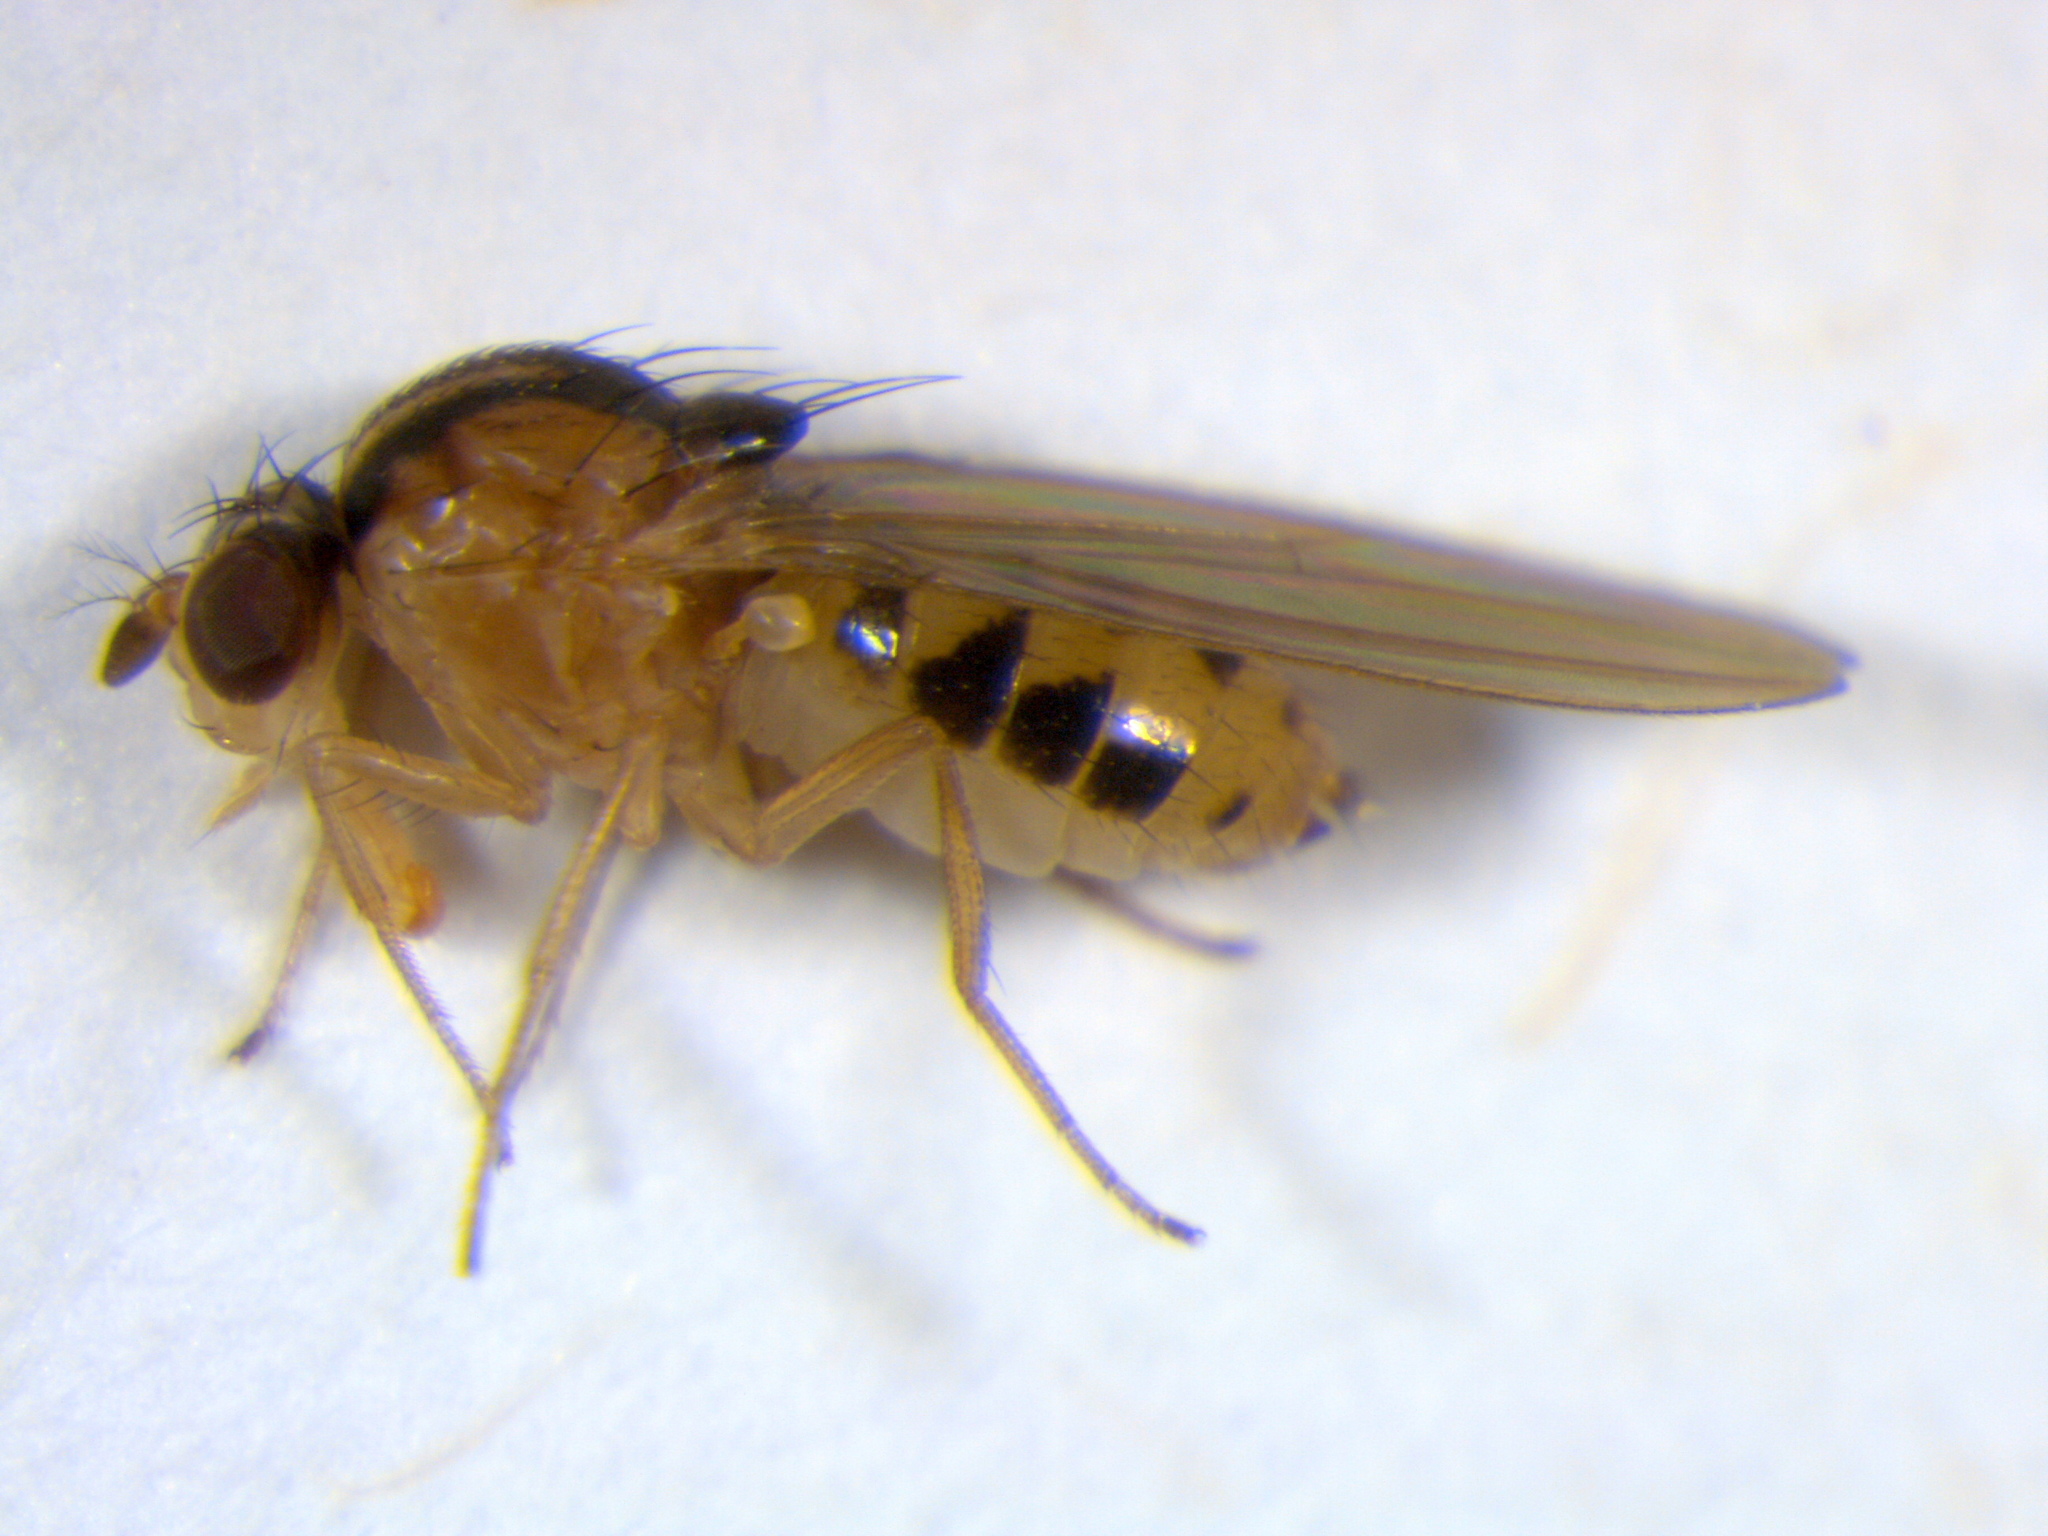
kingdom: Animalia
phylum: Arthropoda
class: Insecta
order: Diptera
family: Drosophilidae
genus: Hirtodrosophila
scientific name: Hirtodrosophila trivittata
